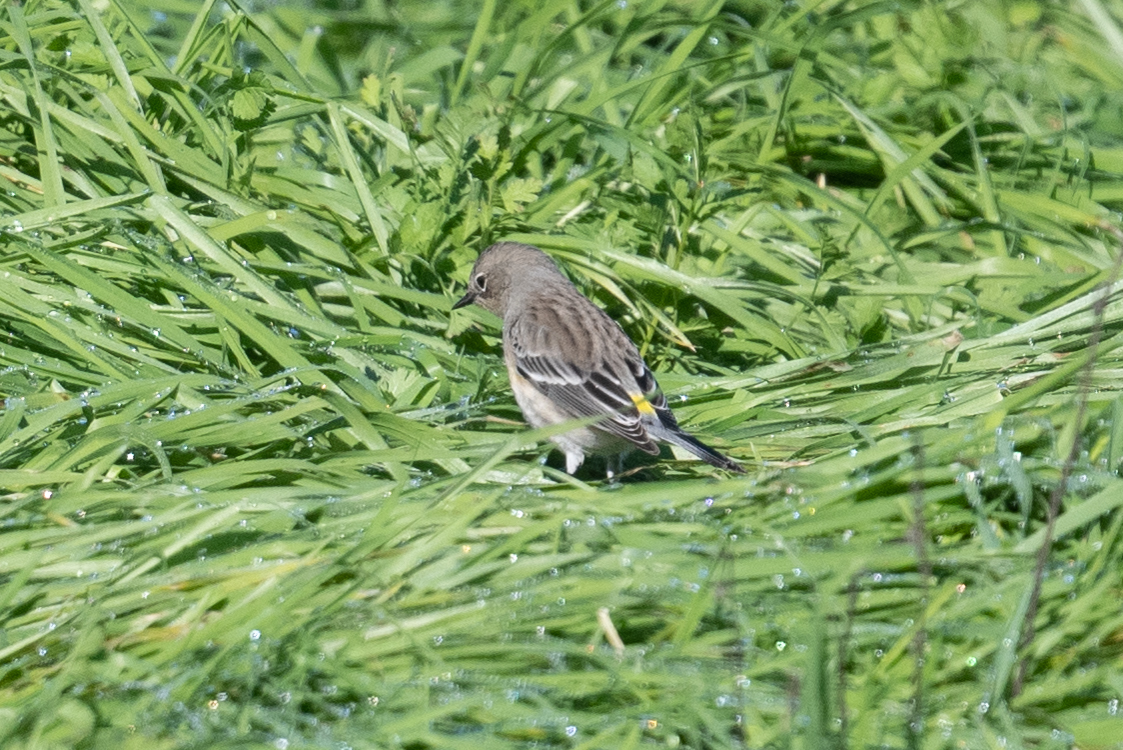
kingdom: Animalia
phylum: Chordata
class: Aves
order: Passeriformes
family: Parulidae
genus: Setophaga
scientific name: Setophaga coronata
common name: Myrtle warbler
